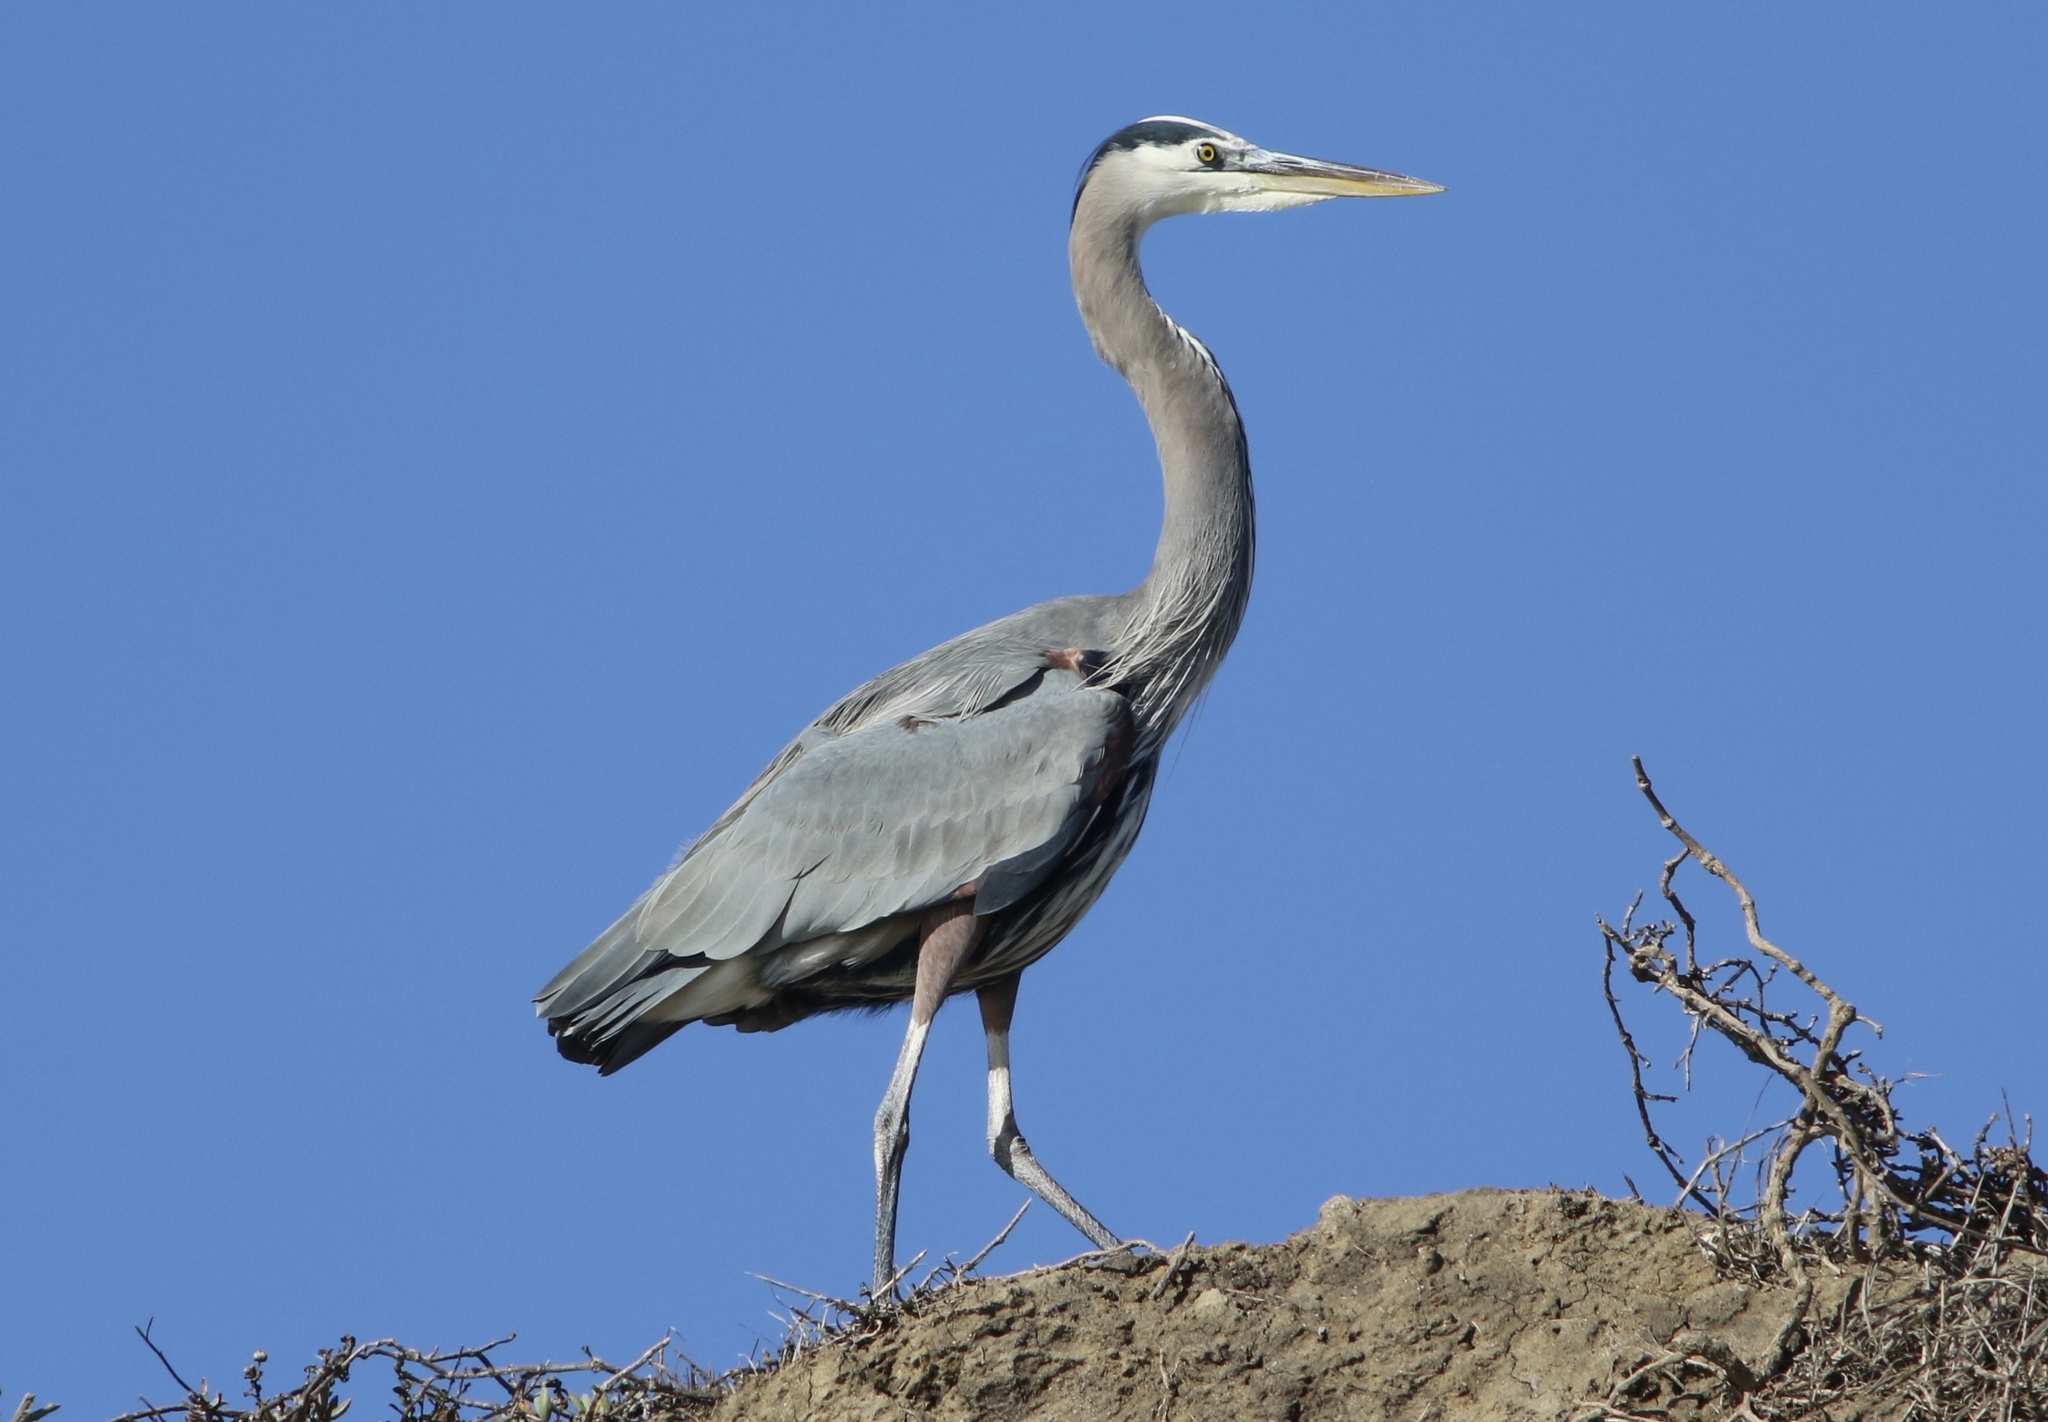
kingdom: Animalia
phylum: Chordata
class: Aves
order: Pelecaniformes
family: Ardeidae
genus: Ardea
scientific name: Ardea herodias
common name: Great blue heron
